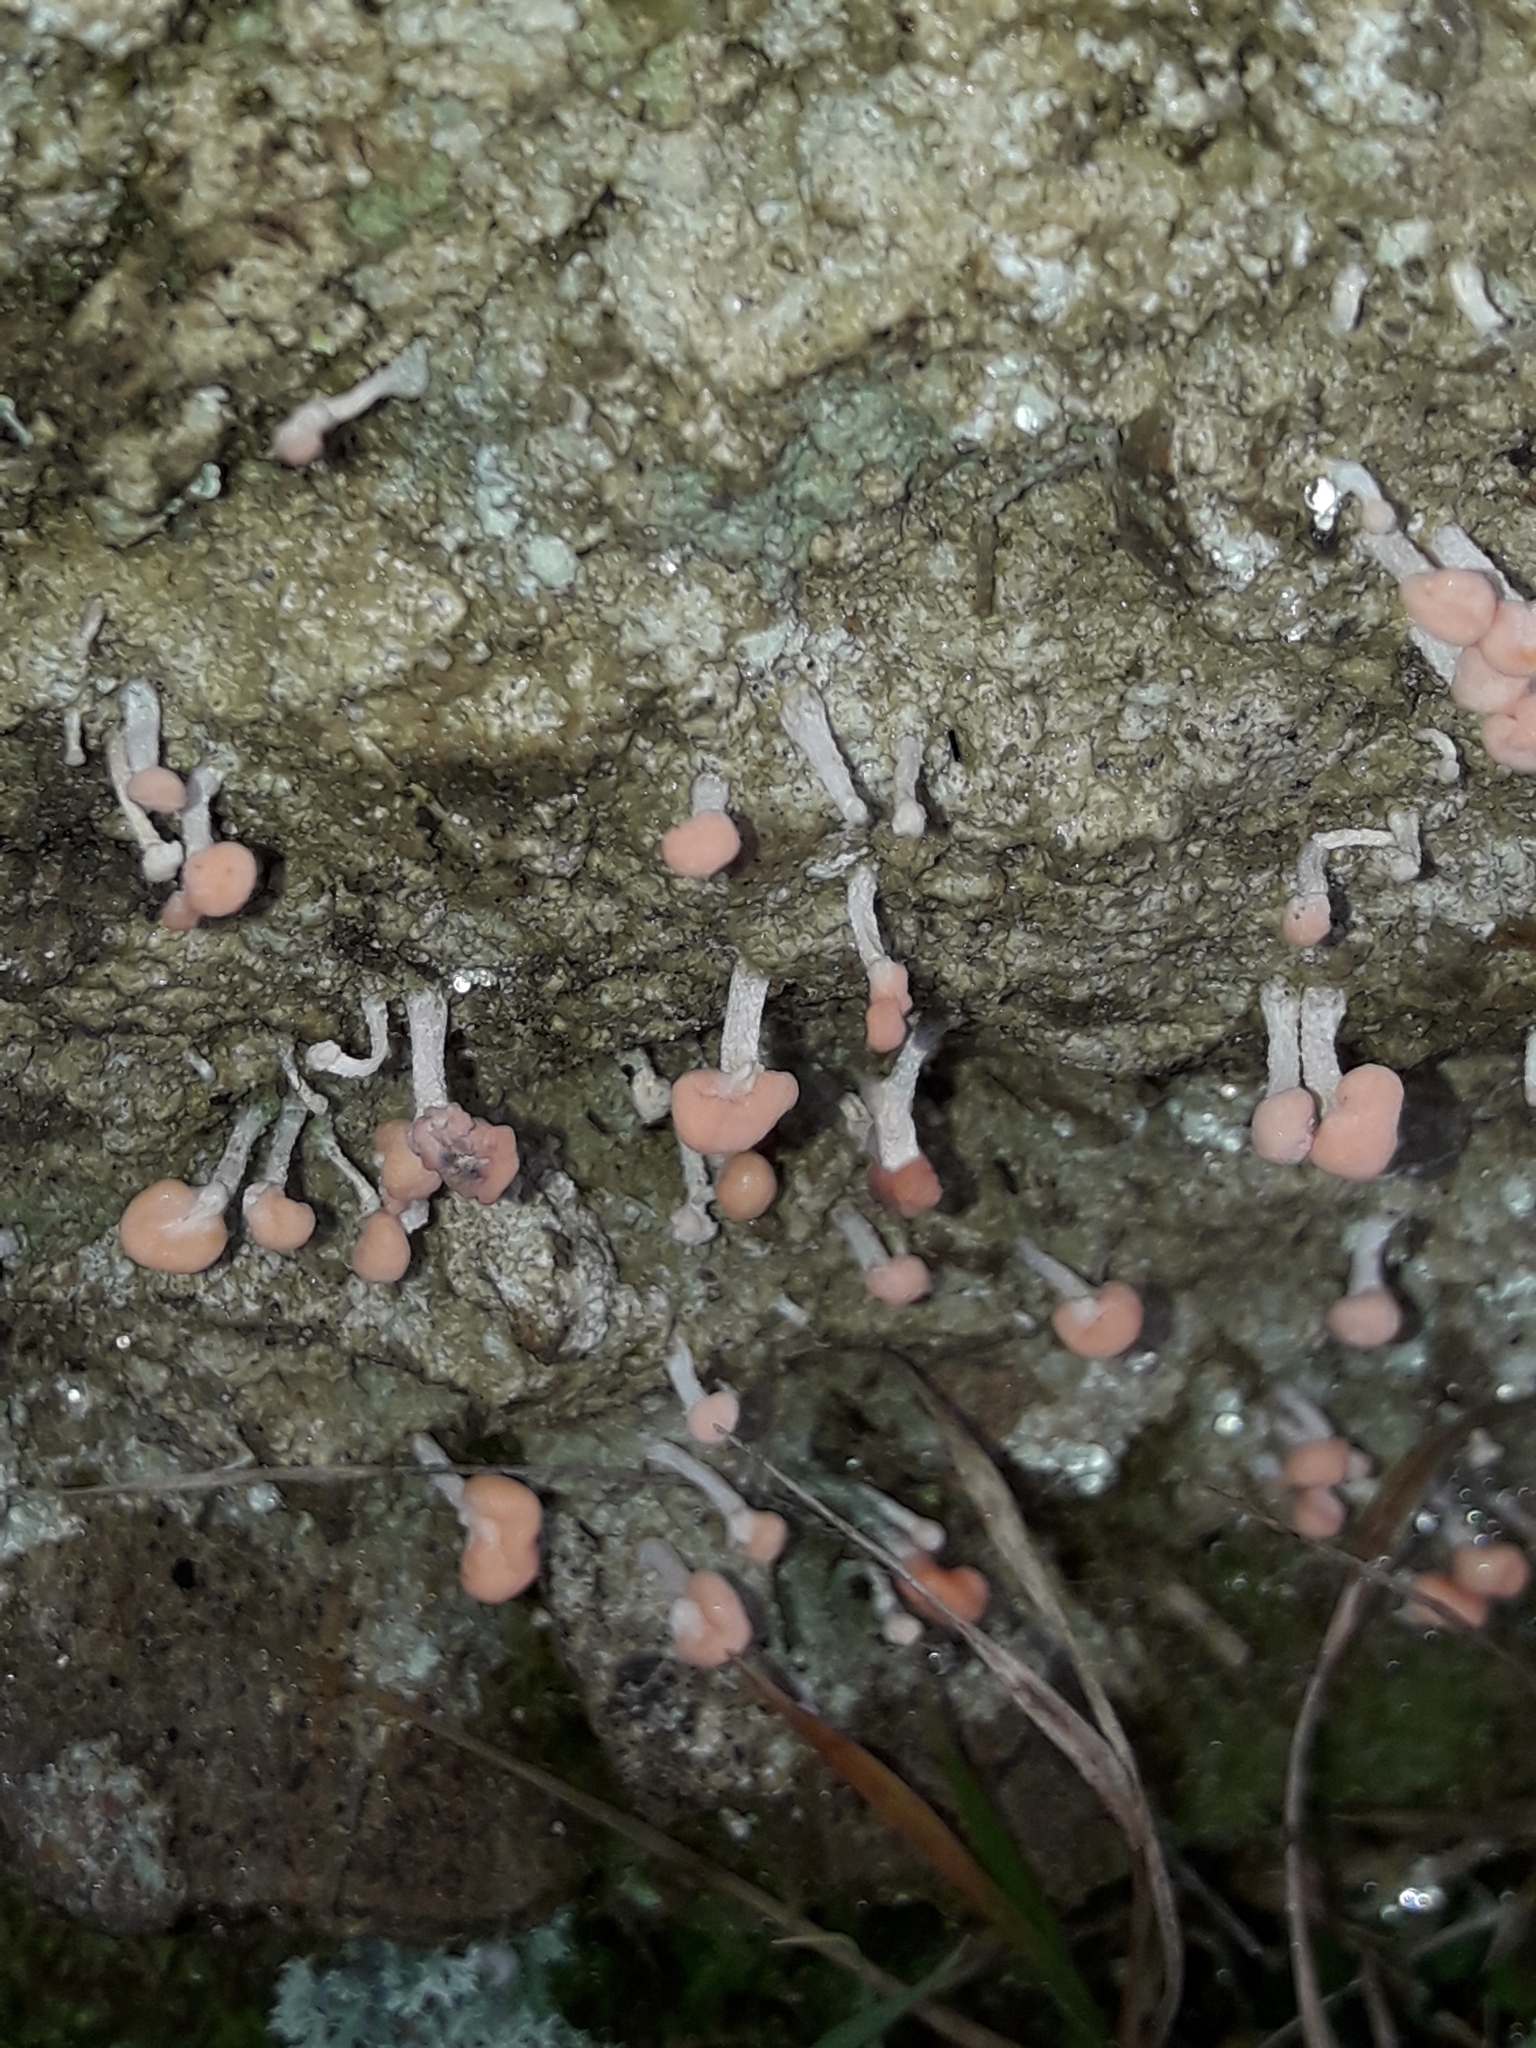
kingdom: Fungi
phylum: Ascomycota
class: Lecanoromycetes
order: Pertusariales
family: Icmadophilaceae
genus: Dibaeis
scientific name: Dibaeis arcuata
